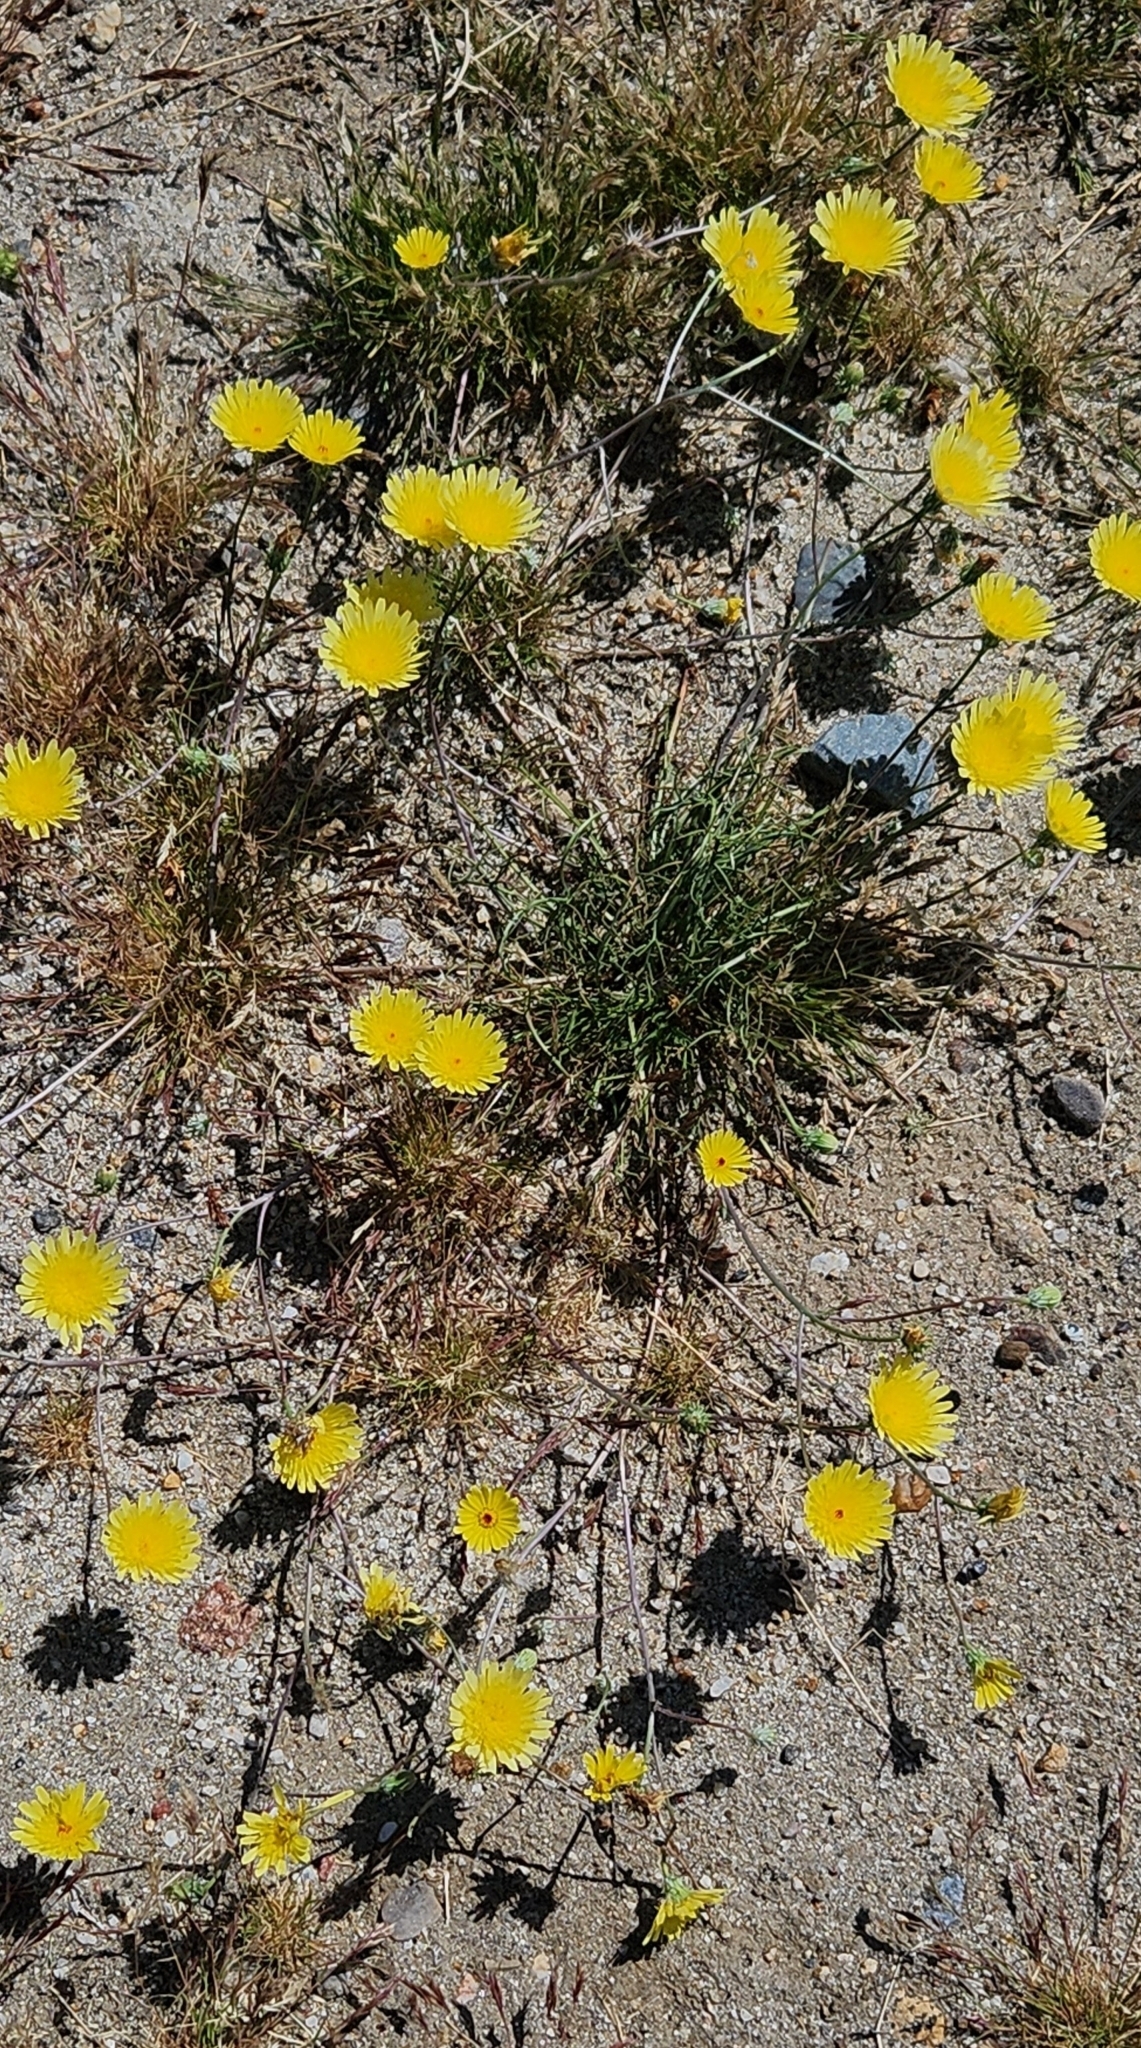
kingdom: Plantae
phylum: Tracheophyta
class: Magnoliopsida
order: Asterales
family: Asteraceae
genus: Malacothrix
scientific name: Malacothrix glabrata
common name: Smooth desert-dandelion
